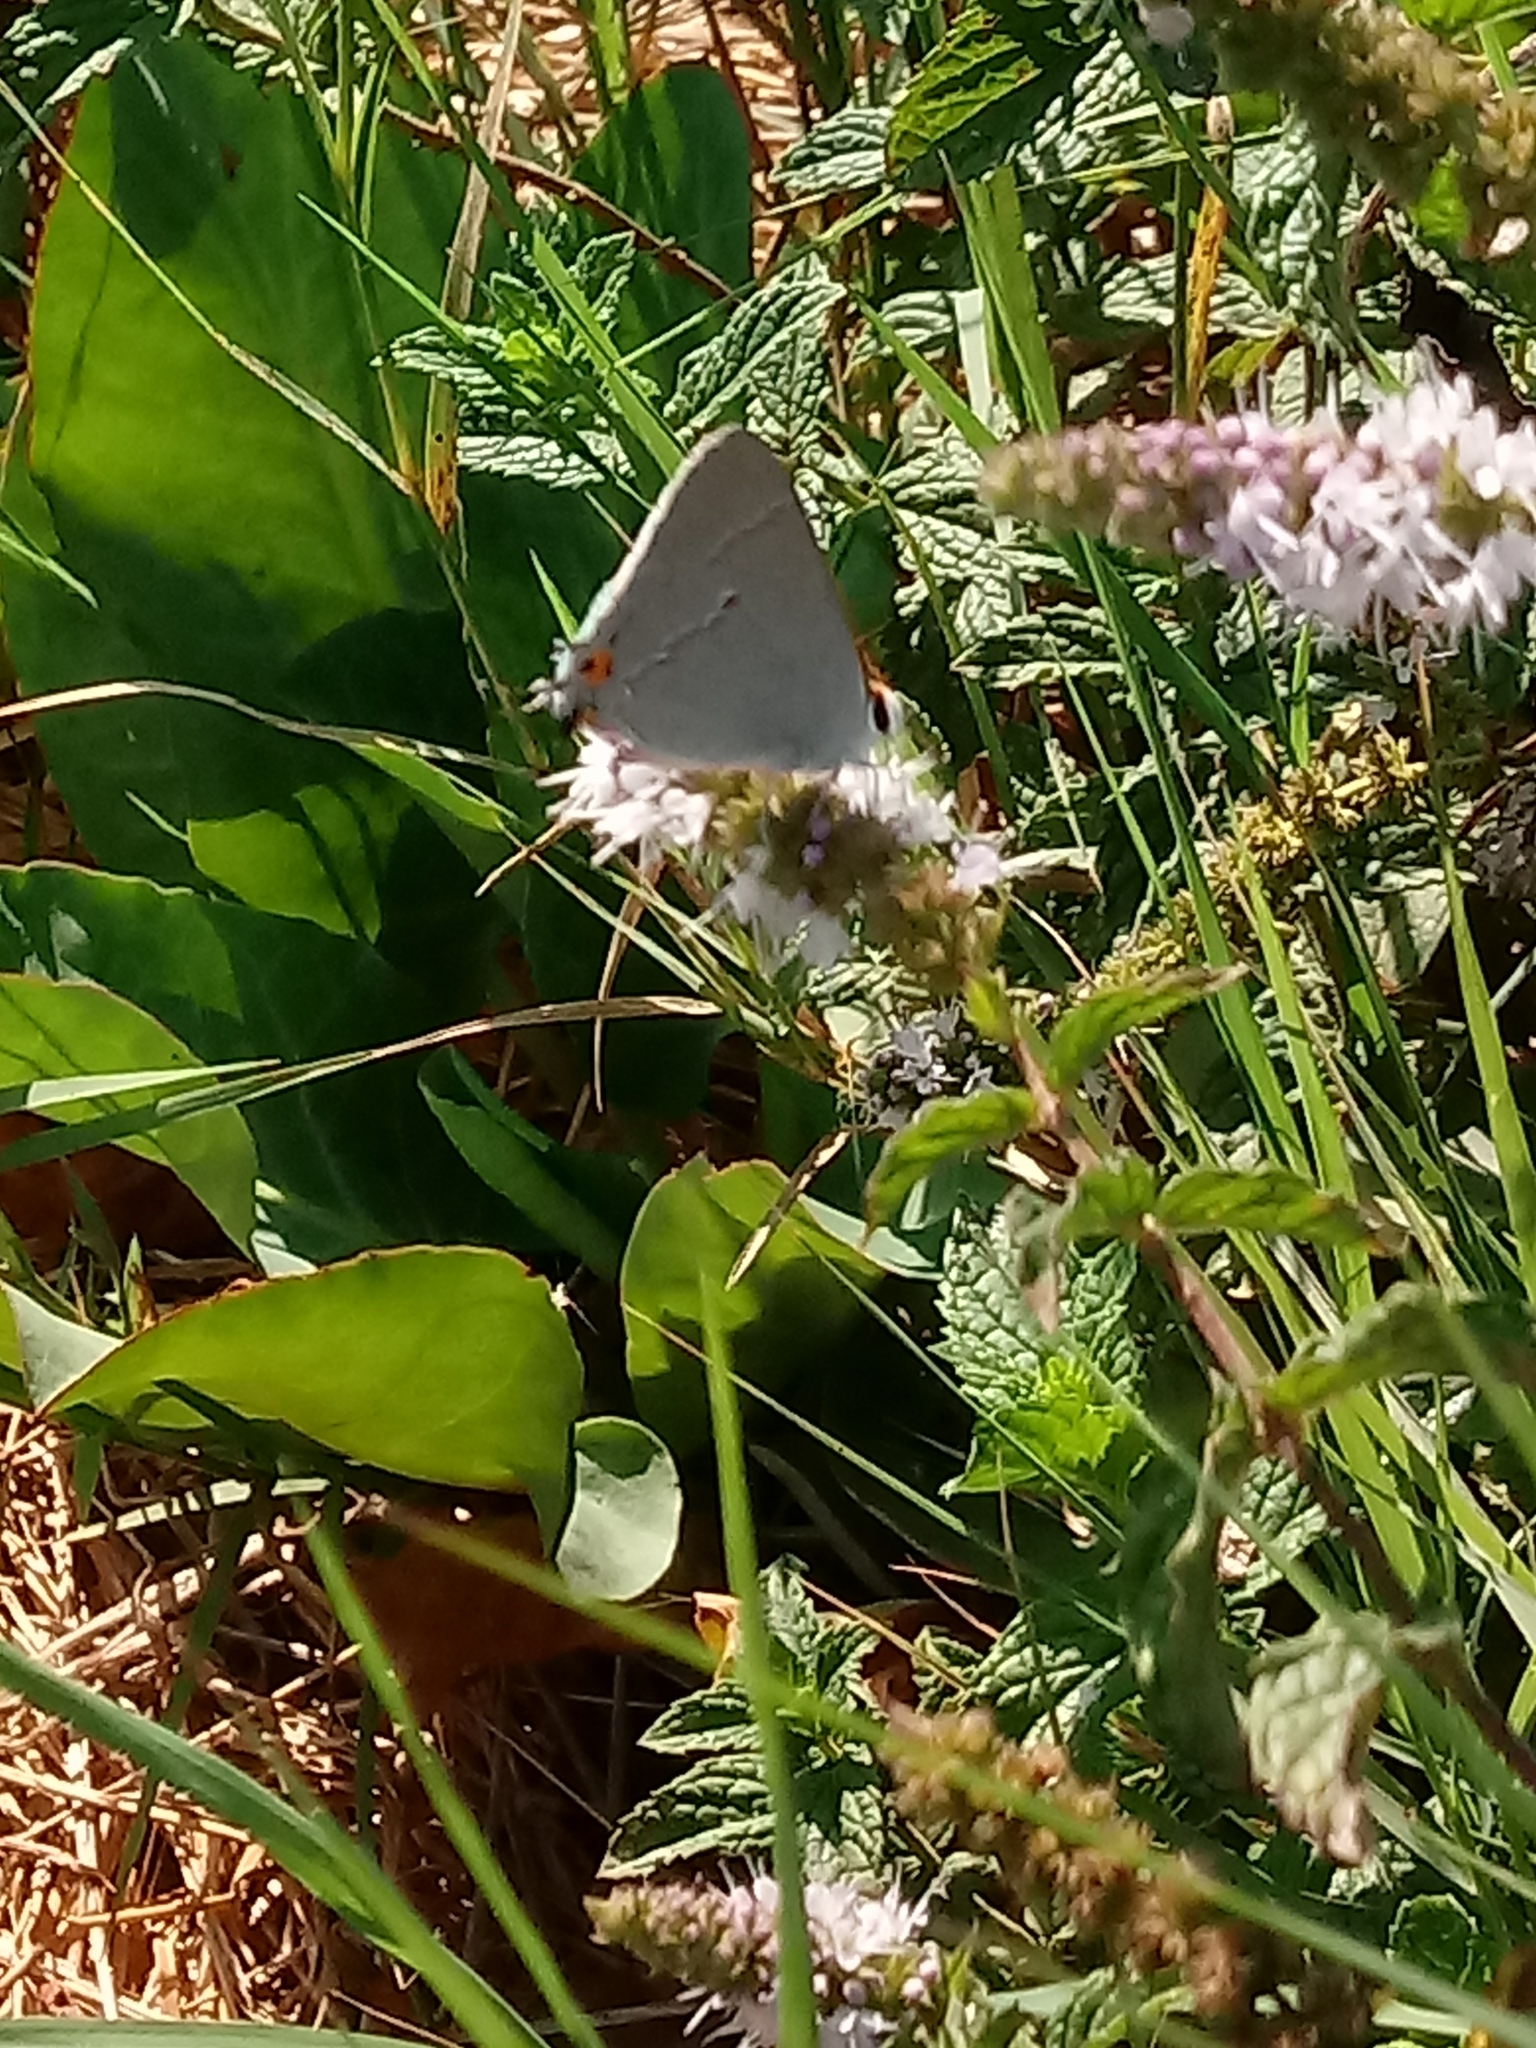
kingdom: Animalia
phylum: Arthropoda
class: Insecta
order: Lepidoptera
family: Lycaenidae
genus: Strymon
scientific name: Strymon melinus
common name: Gray hairstreak
